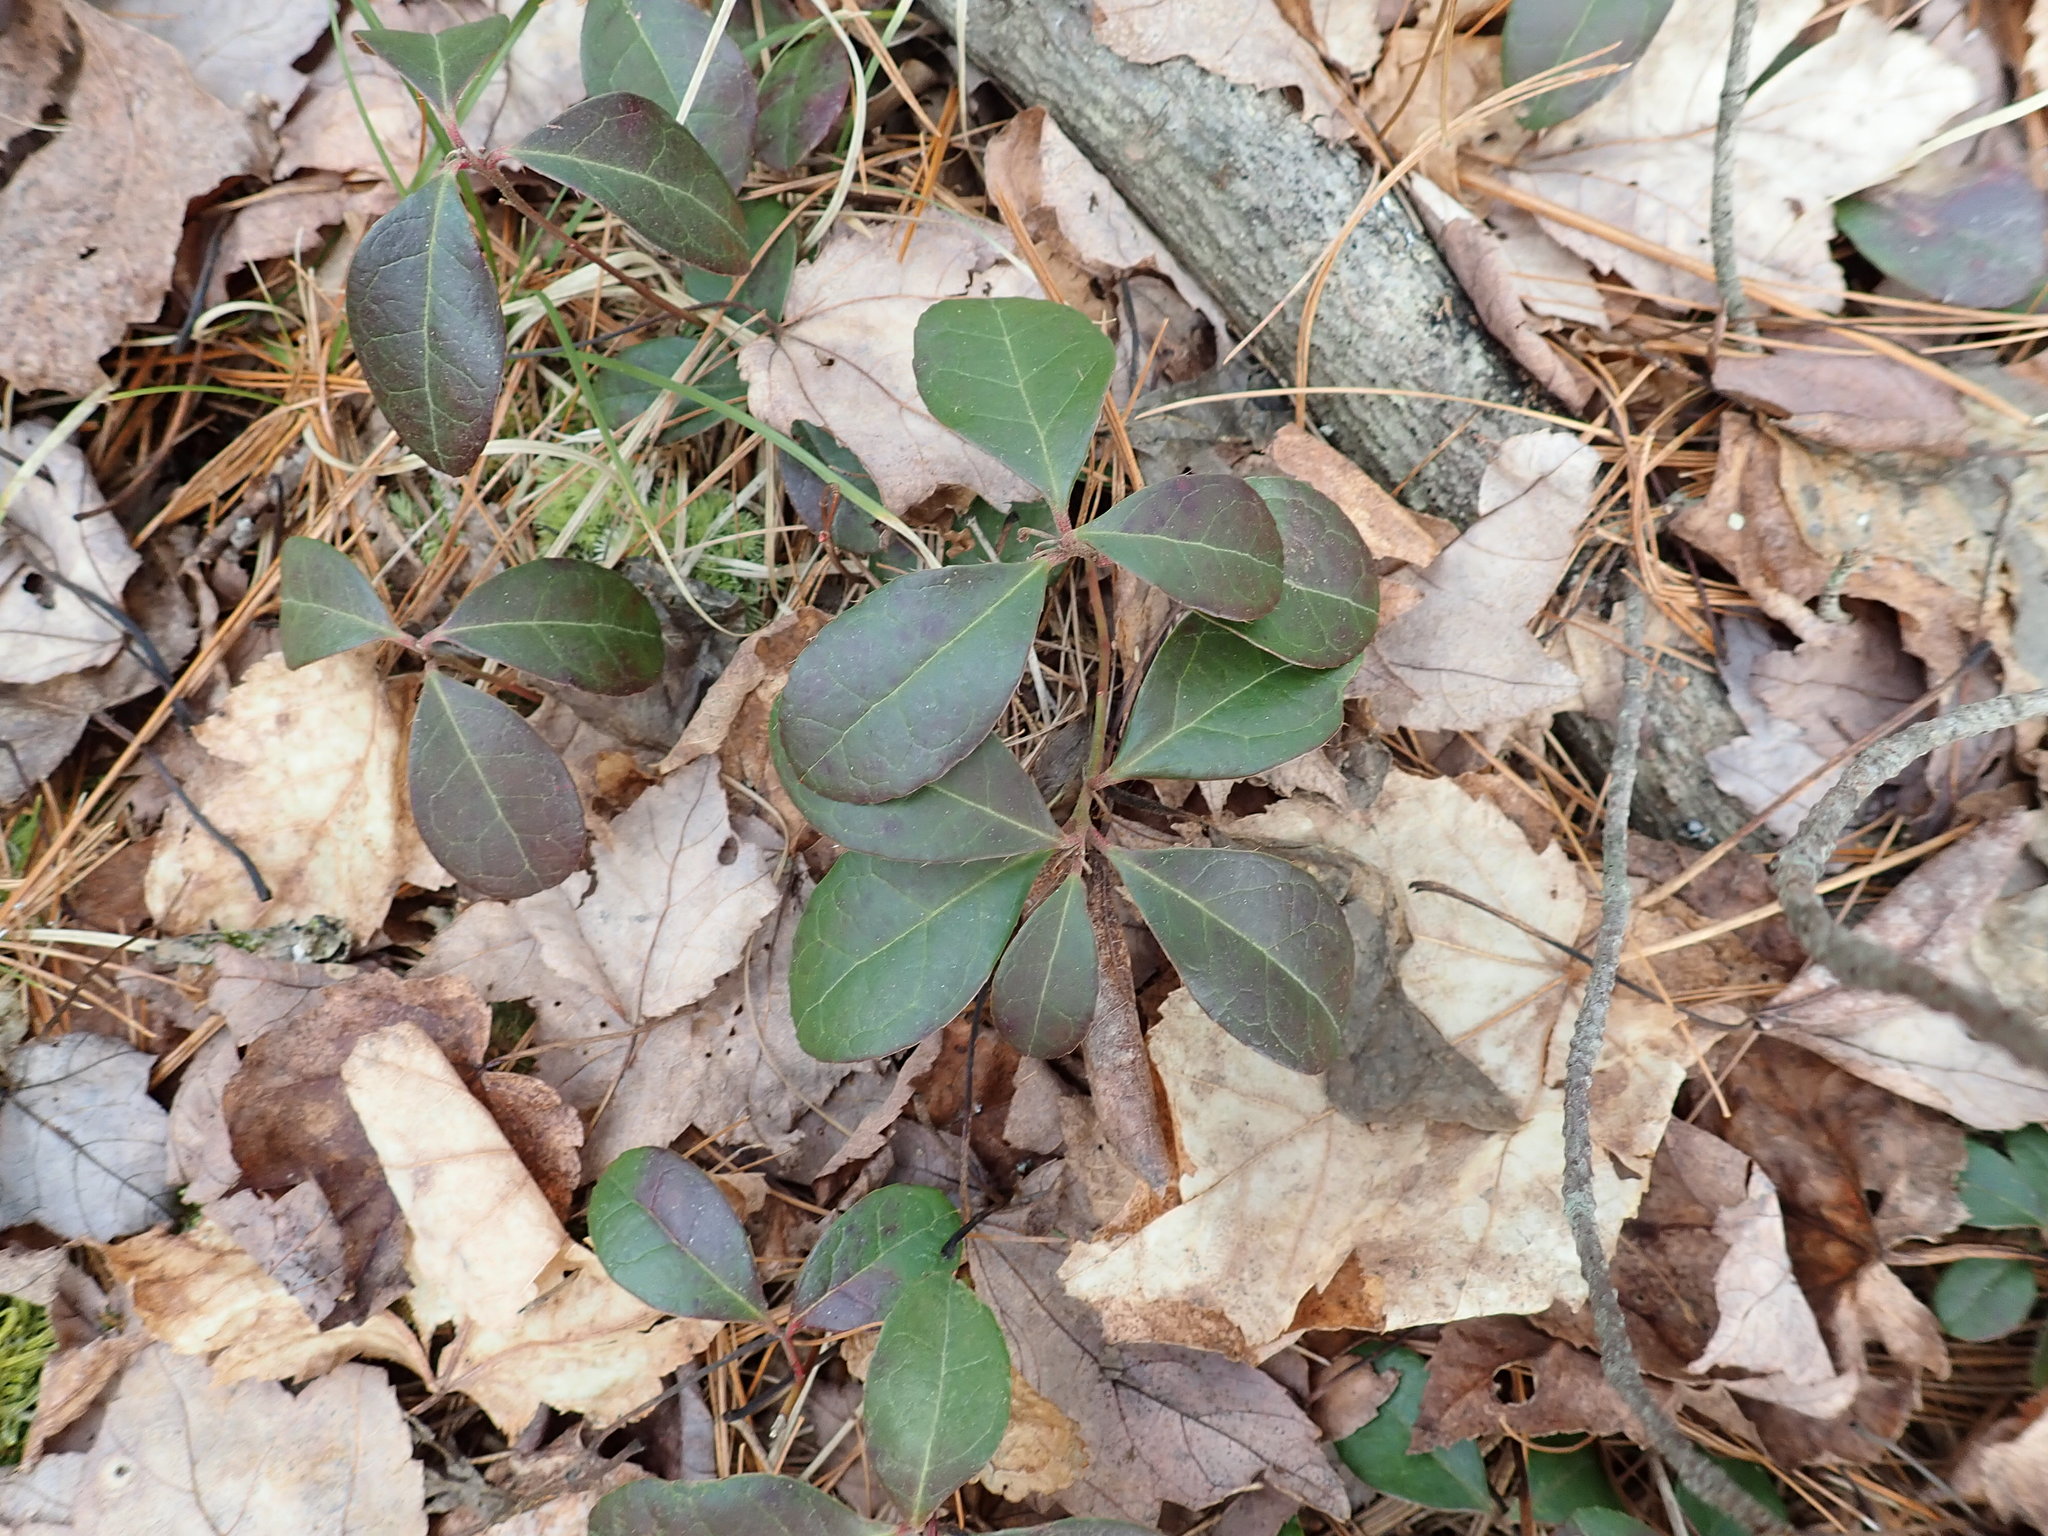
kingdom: Plantae
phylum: Tracheophyta
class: Magnoliopsida
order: Ericales
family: Ericaceae
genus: Gaultheria
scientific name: Gaultheria procumbens
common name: Checkerberry
